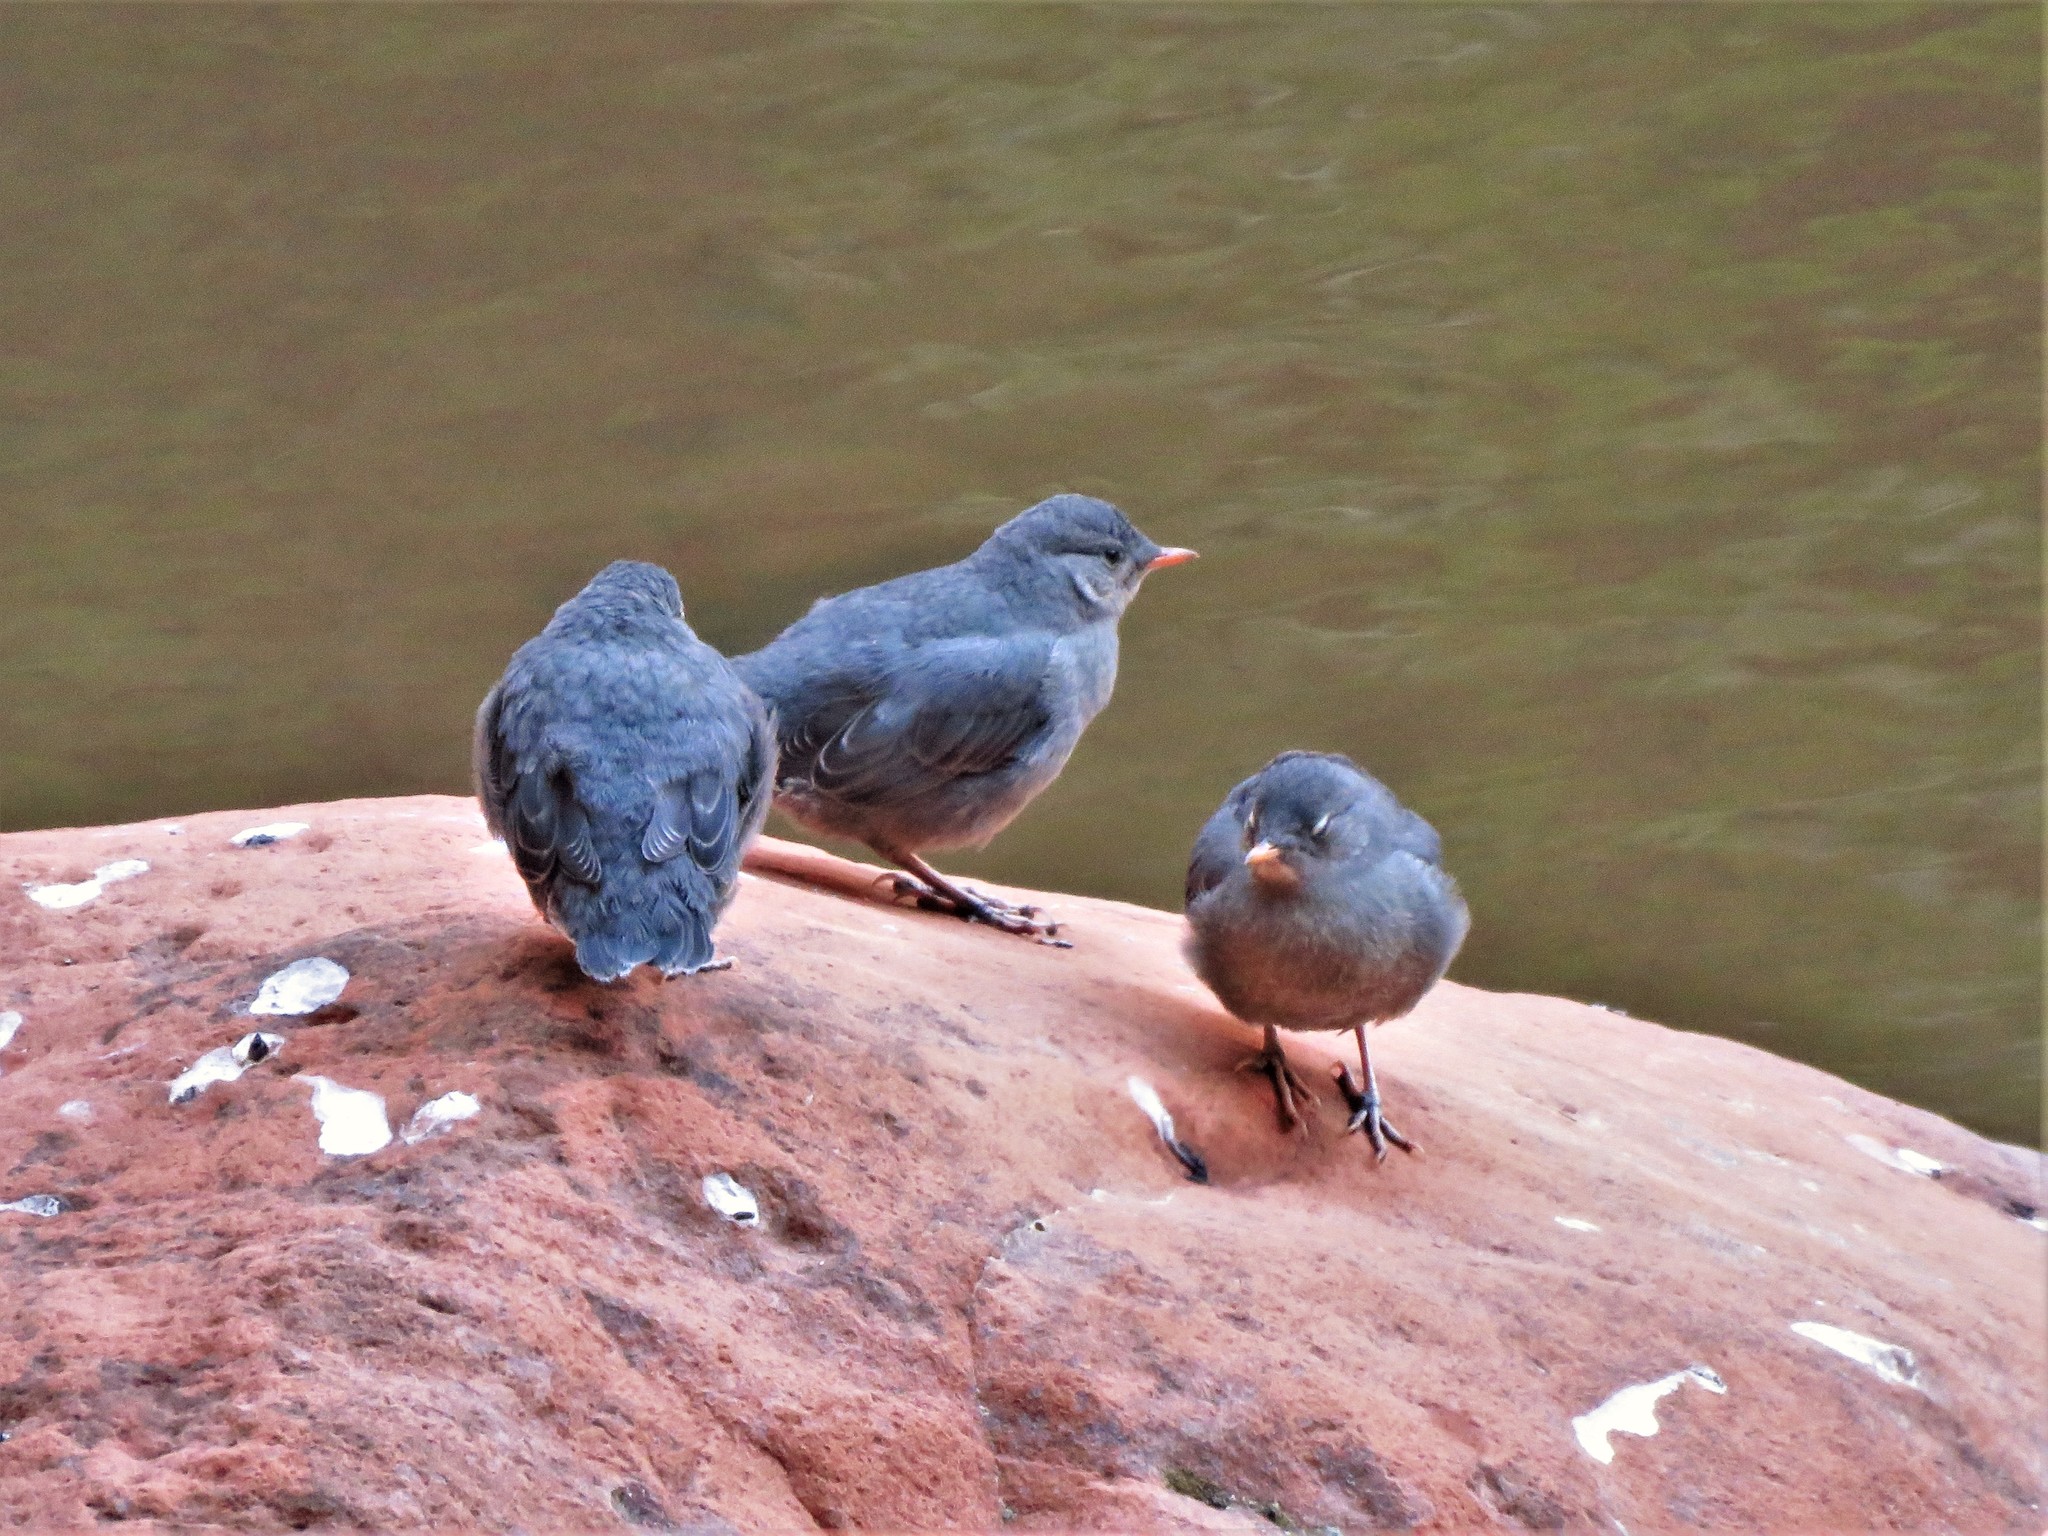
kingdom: Animalia
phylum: Chordata
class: Aves
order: Passeriformes
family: Cinclidae
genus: Cinclus
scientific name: Cinclus mexicanus
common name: American dipper
